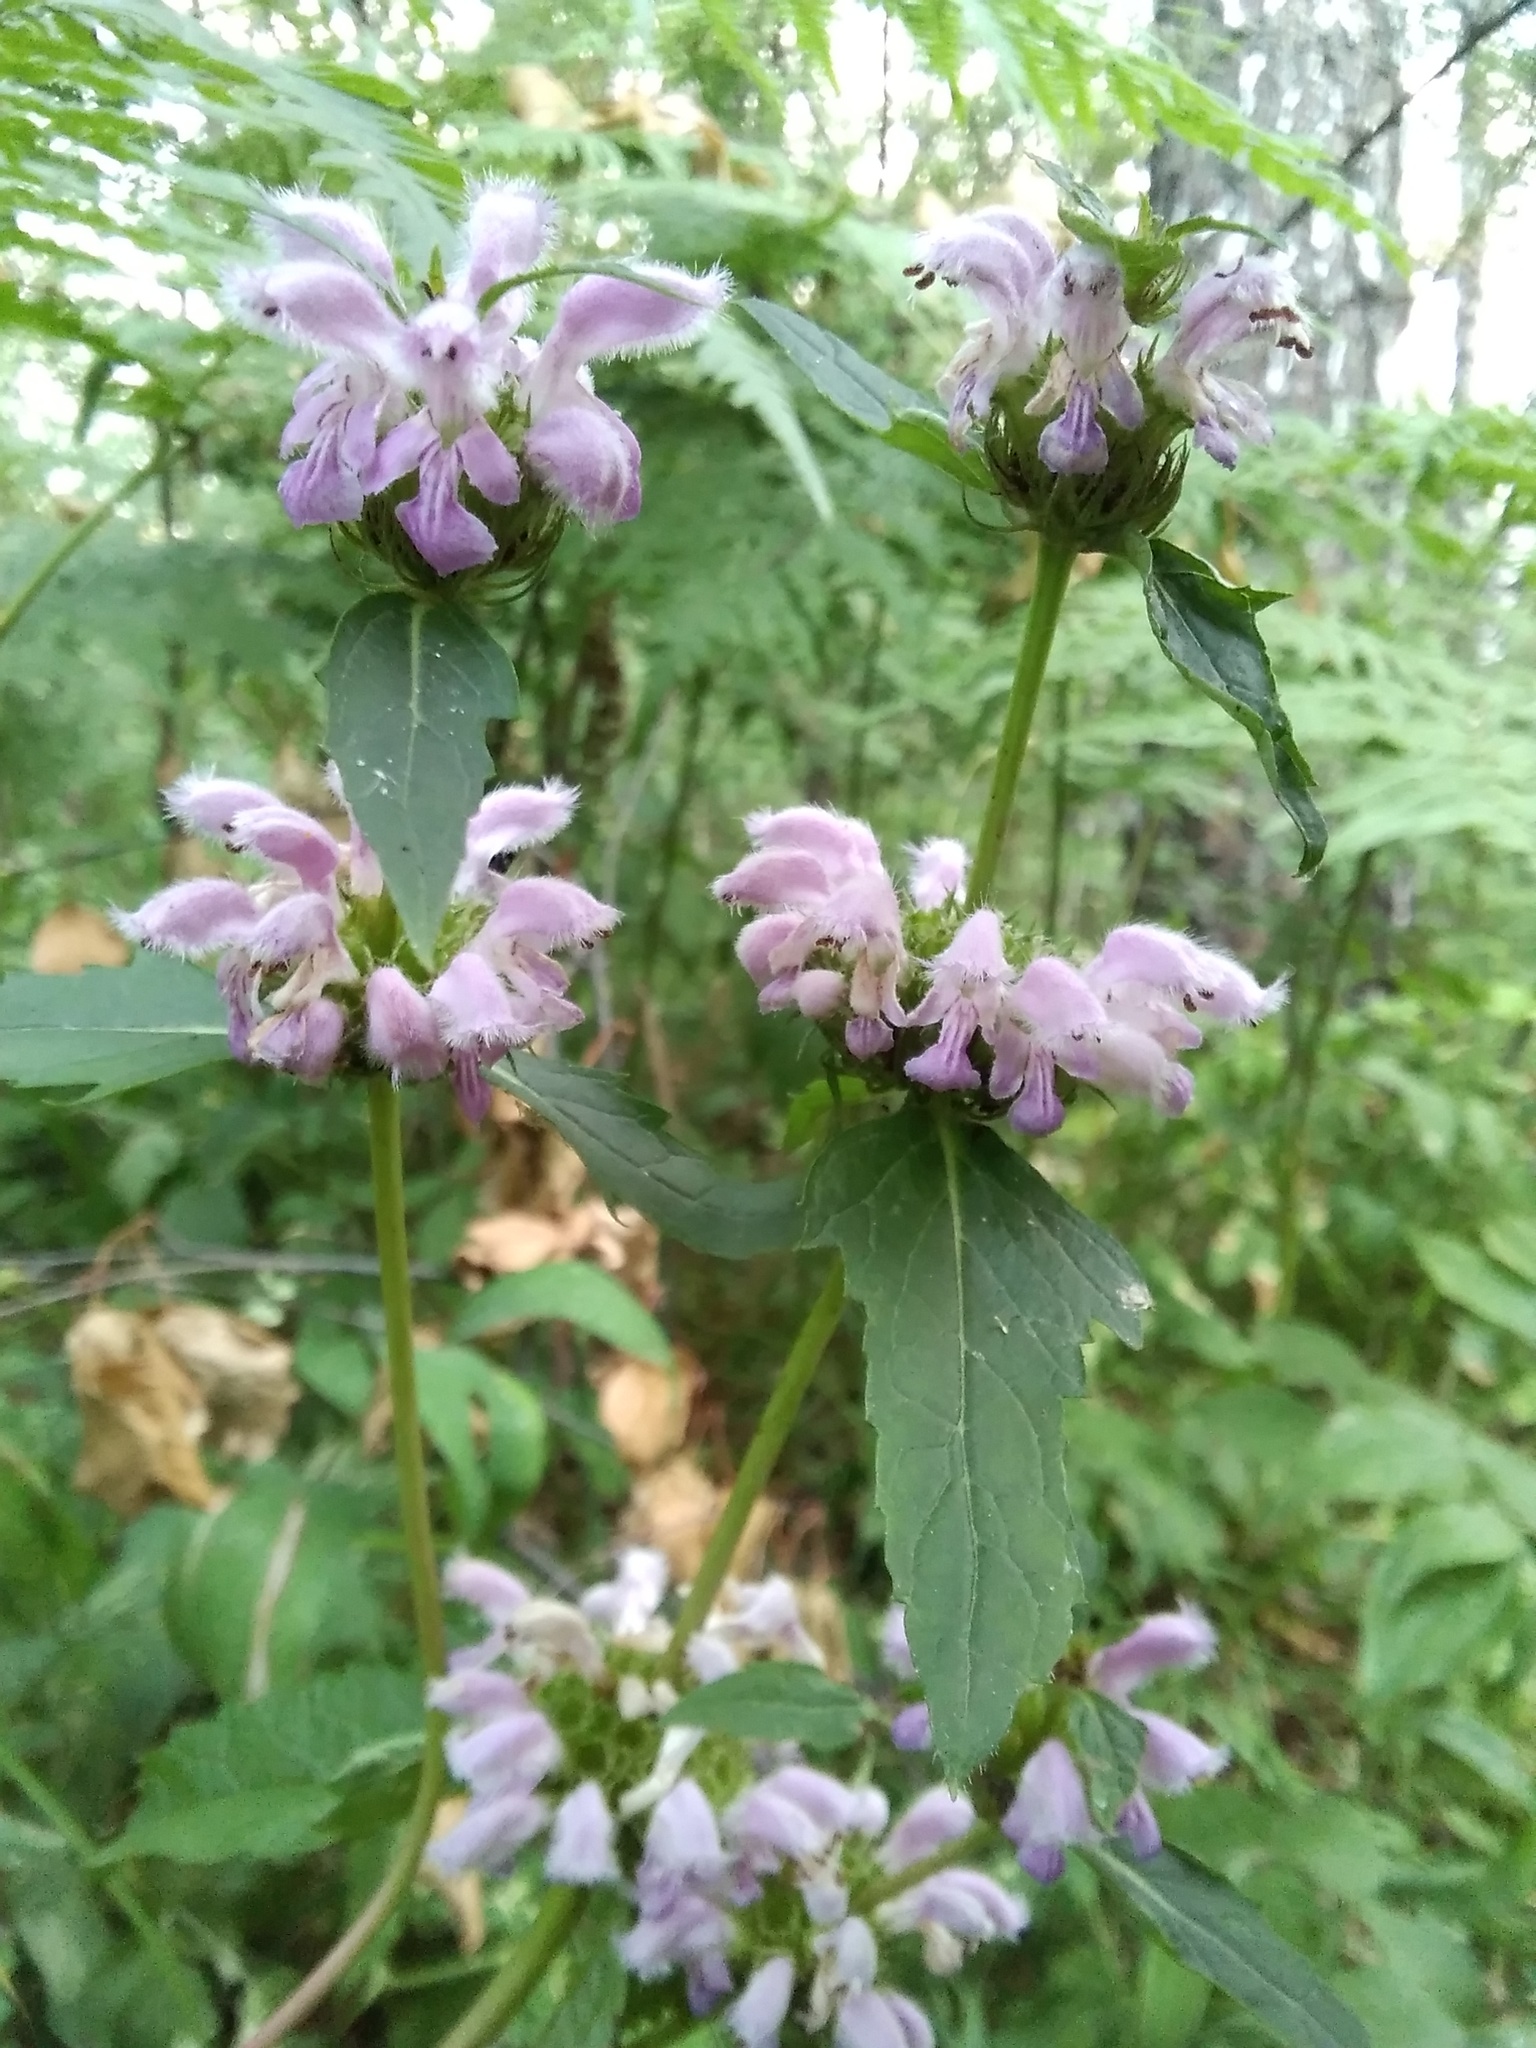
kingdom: Plantae
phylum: Tracheophyta
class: Magnoliopsida
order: Lamiales
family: Lamiaceae
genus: Phlomoides
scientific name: Phlomoides tuberosa
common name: Tuberous jerusalem sage
